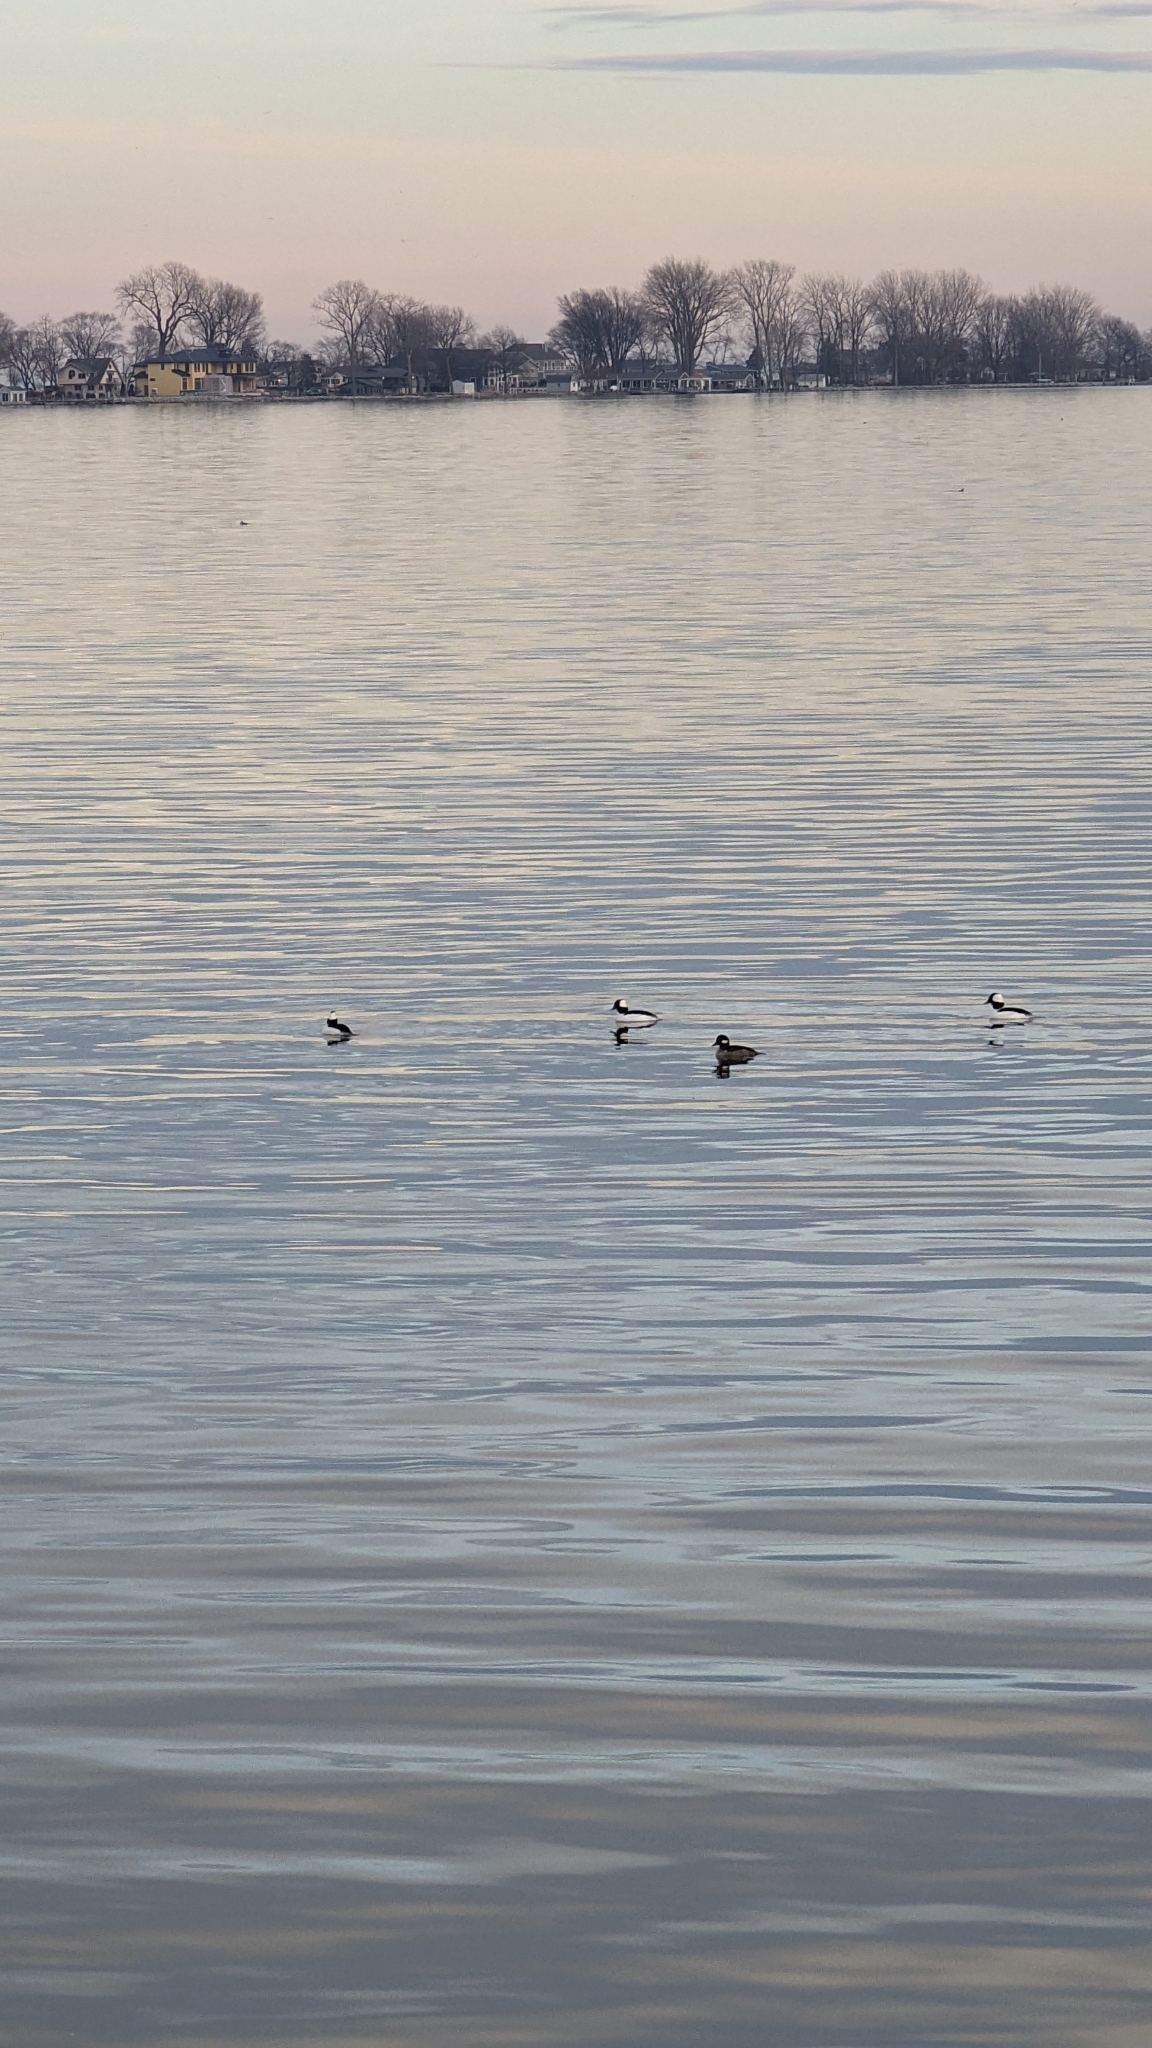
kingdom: Animalia
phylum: Chordata
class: Aves
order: Anseriformes
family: Anatidae
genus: Bucephala
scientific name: Bucephala albeola
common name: Bufflehead
